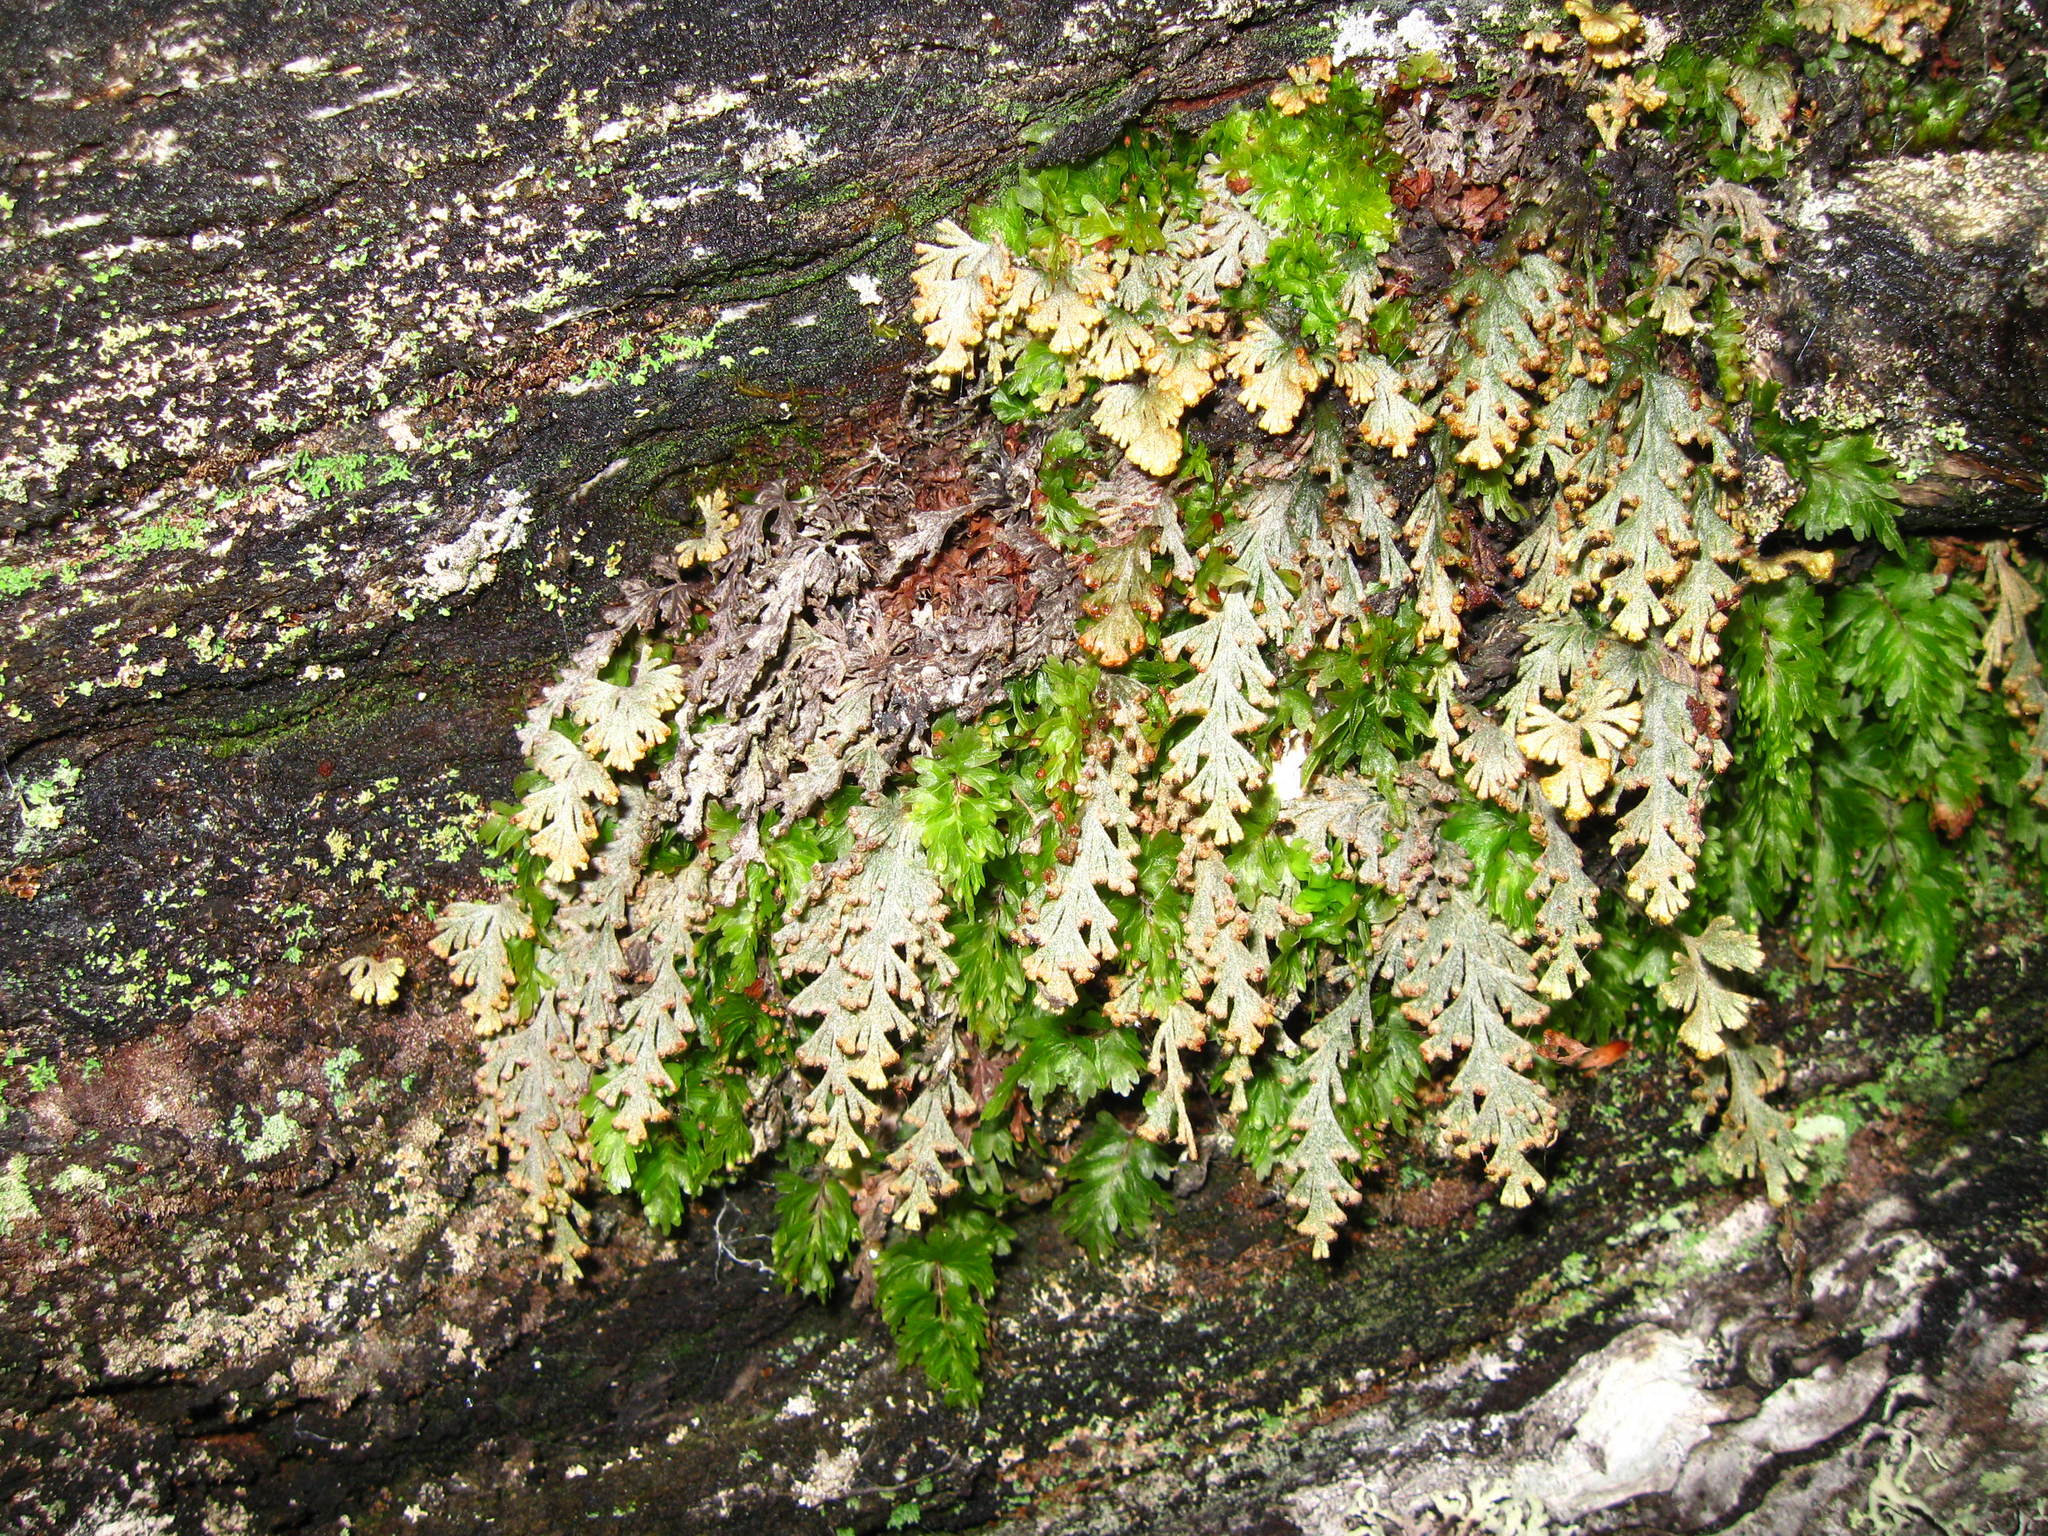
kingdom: Plantae
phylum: Tracheophyta
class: Polypodiopsida
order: Hymenophyllales
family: Hymenophyllaceae
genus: Hymenophyllum
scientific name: Hymenophyllum malingii
